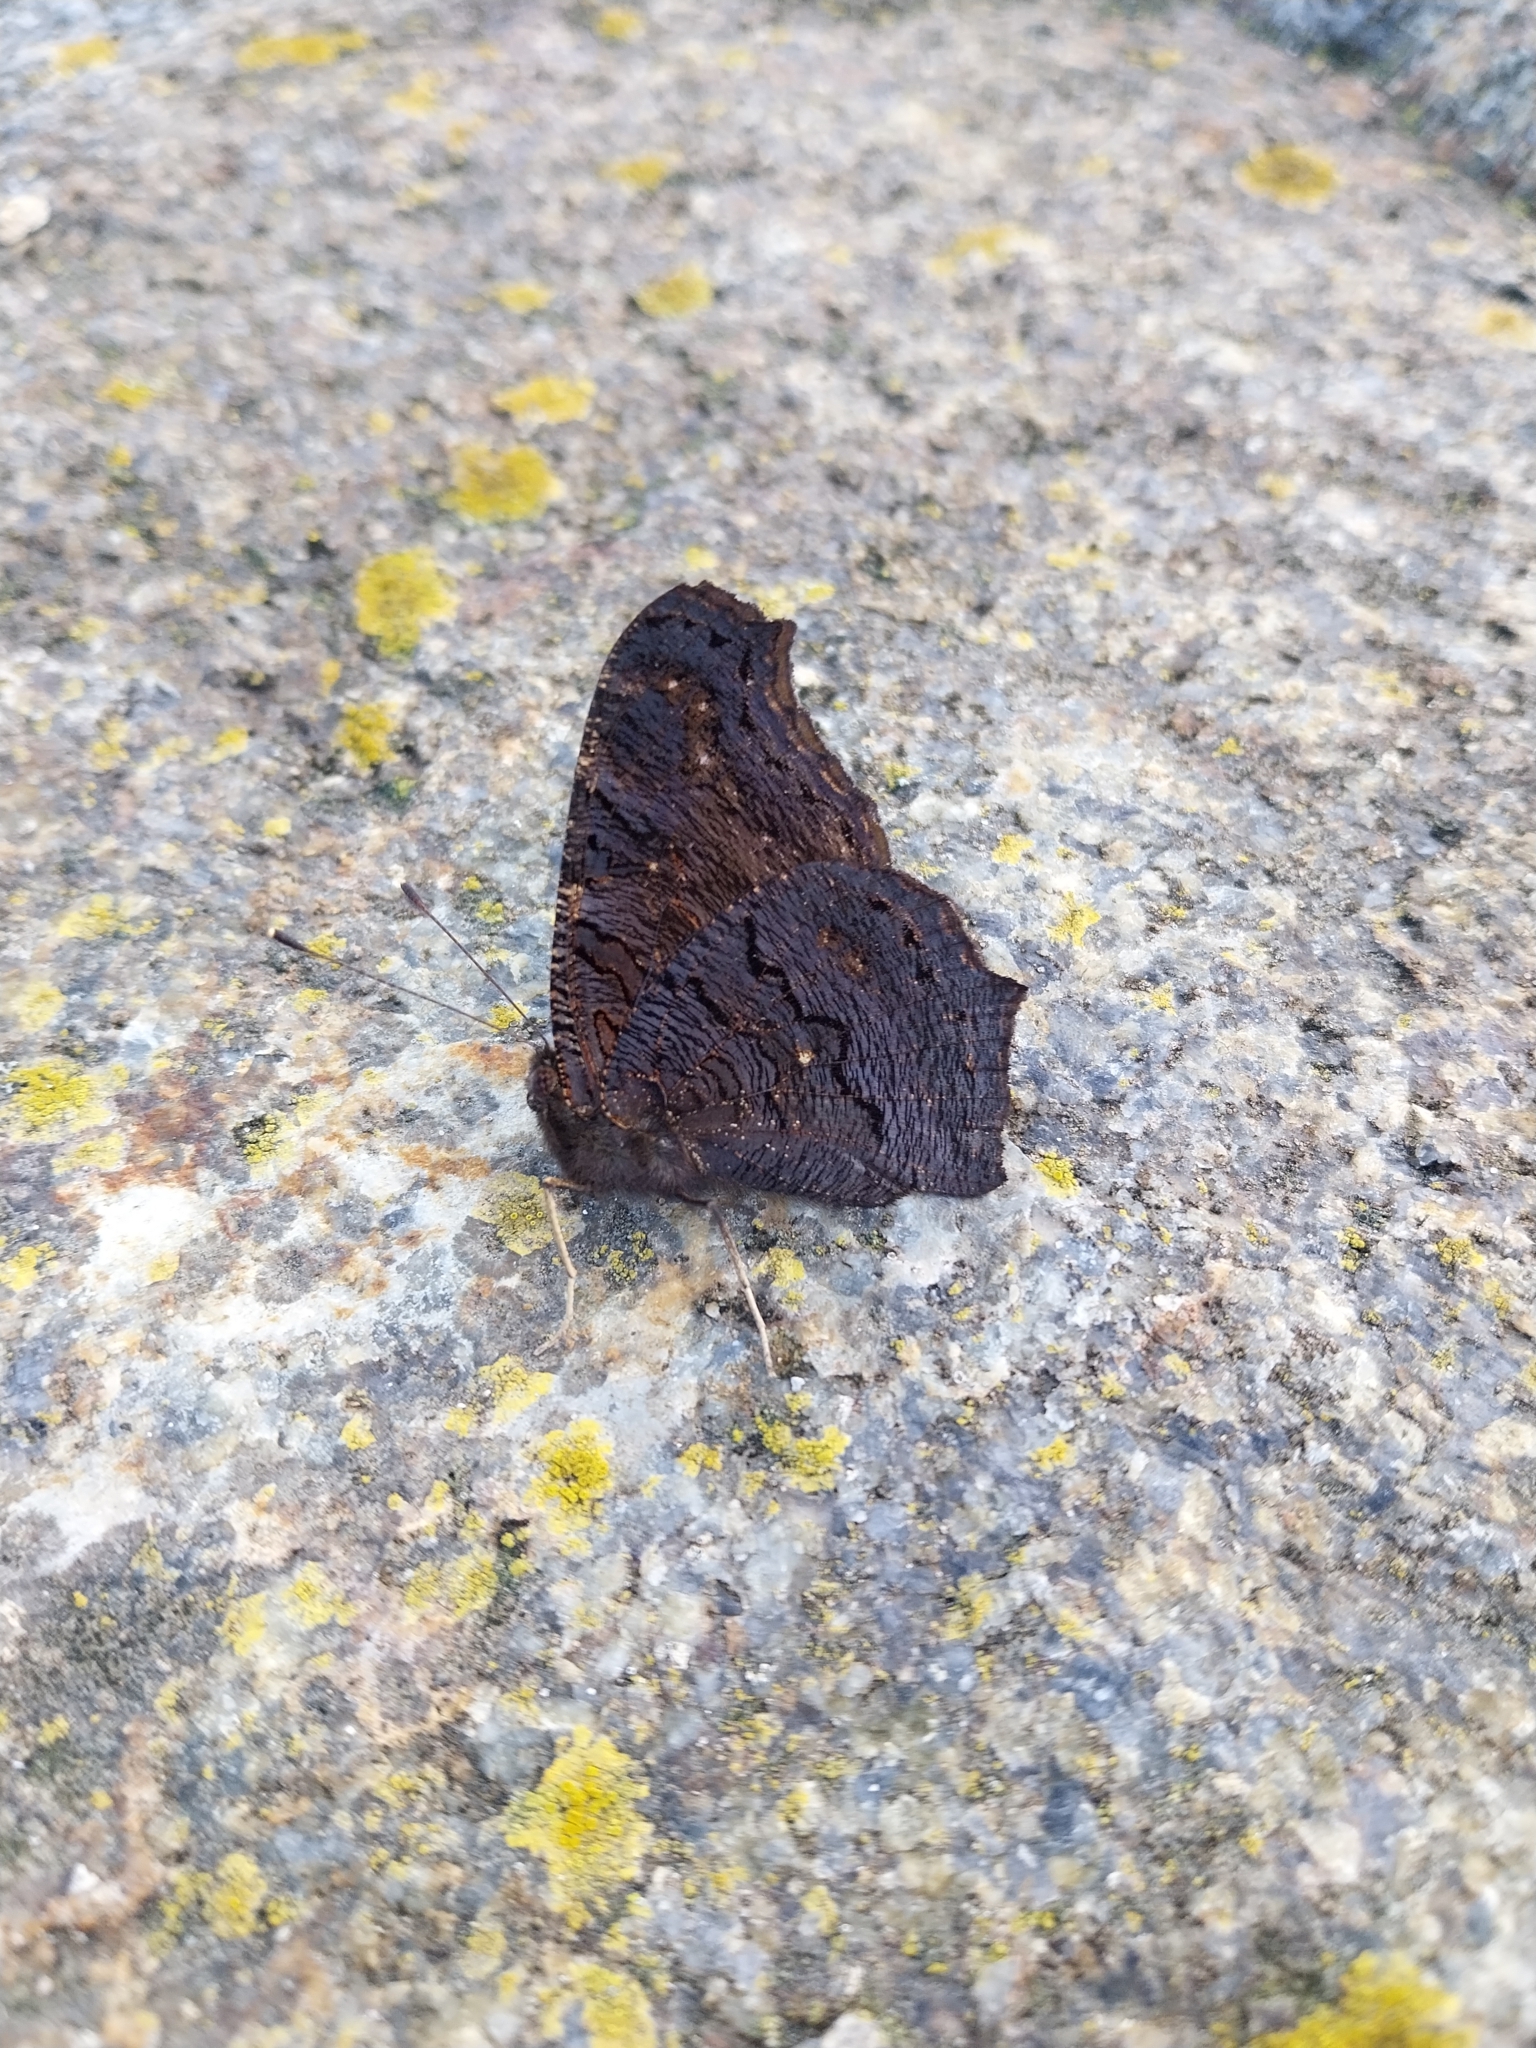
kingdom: Animalia
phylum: Arthropoda
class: Insecta
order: Lepidoptera
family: Nymphalidae
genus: Aglais
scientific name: Aglais io
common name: Peacock
